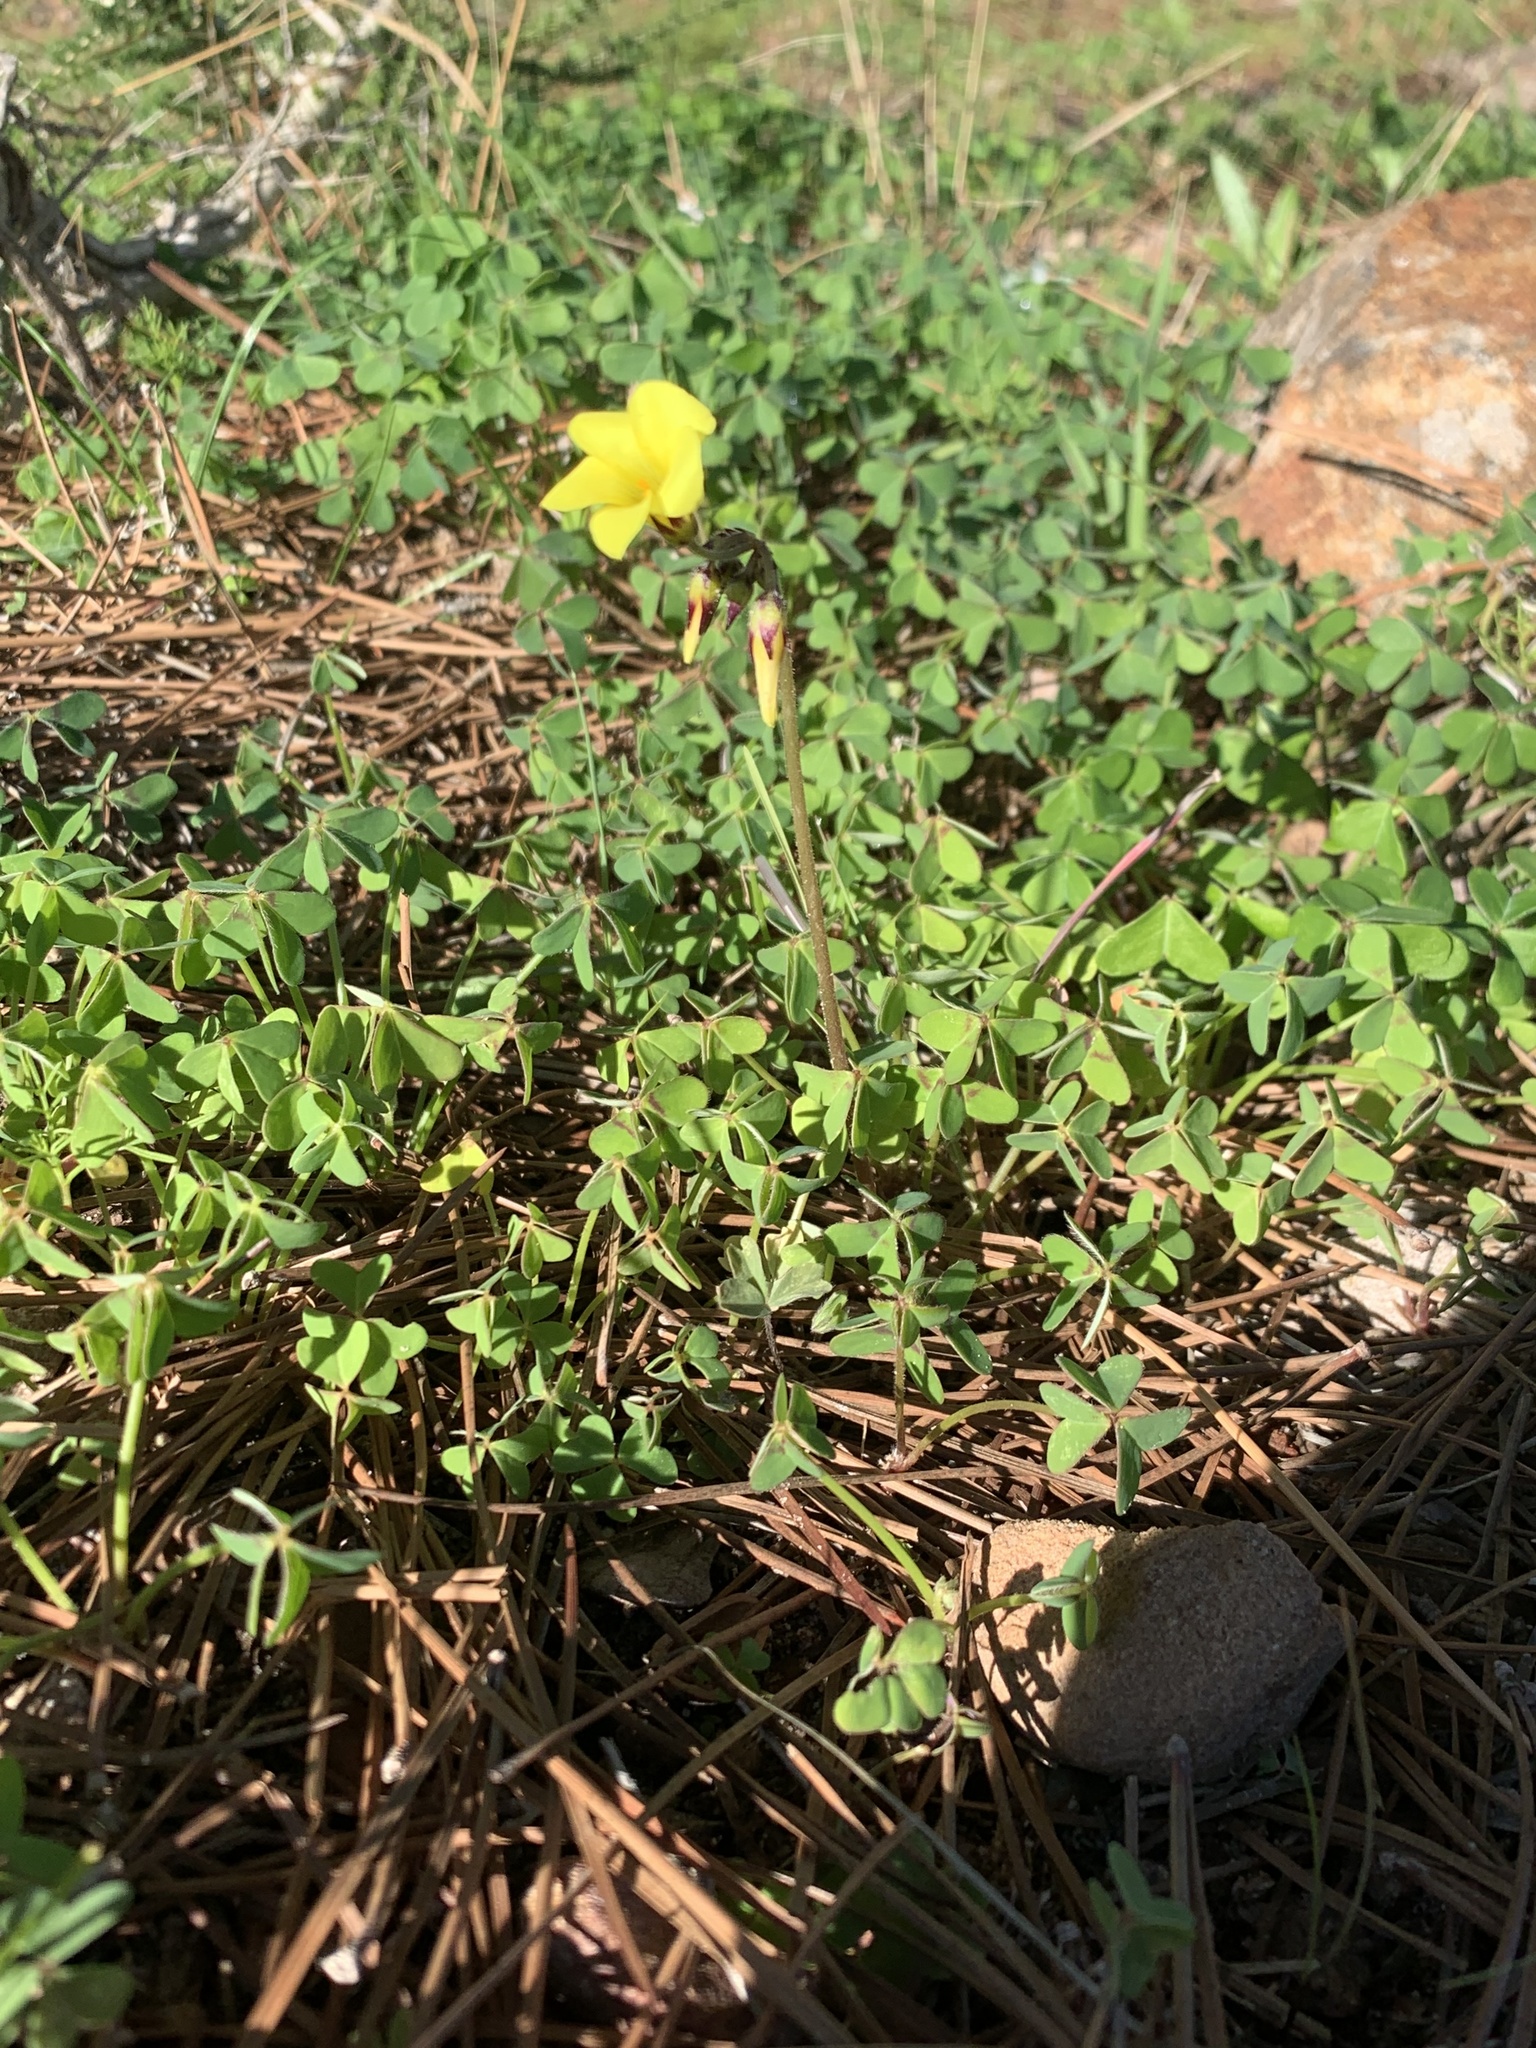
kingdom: Plantae
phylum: Tracheophyta
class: Magnoliopsida
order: Oxalidales
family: Oxalidaceae
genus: Oxalis
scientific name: Oxalis pes-caprae
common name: Bermuda-buttercup
